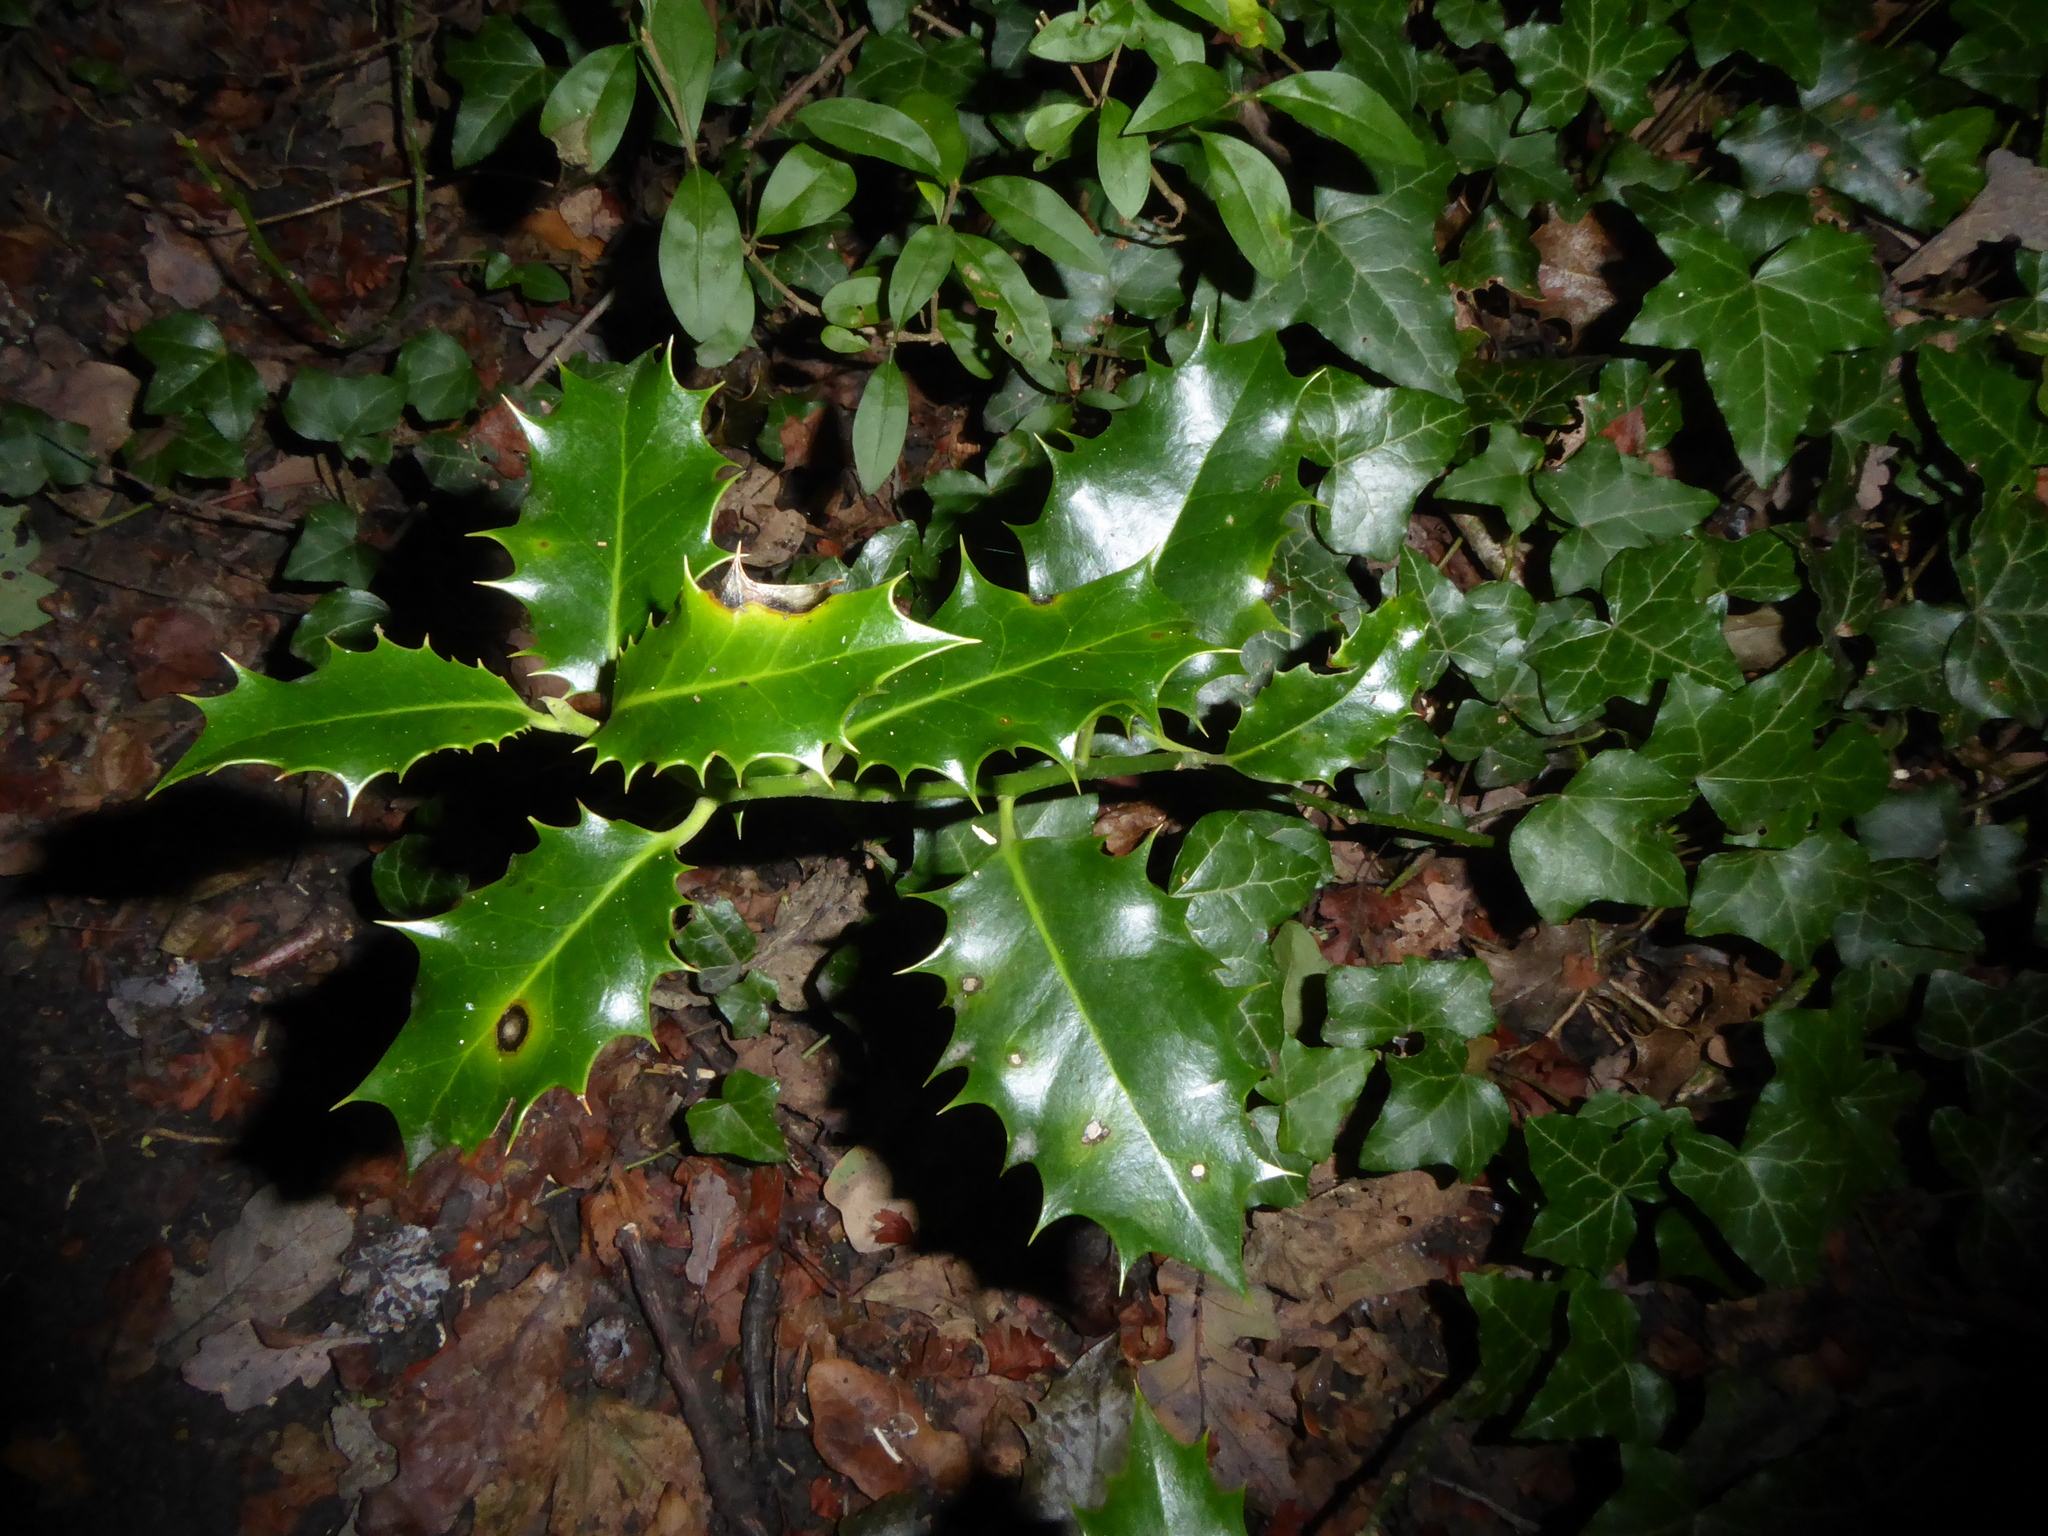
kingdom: Plantae
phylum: Tracheophyta
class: Magnoliopsida
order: Aquifoliales
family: Aquifoliaceae
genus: Ilex
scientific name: Ilex aquifolium
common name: English holly
